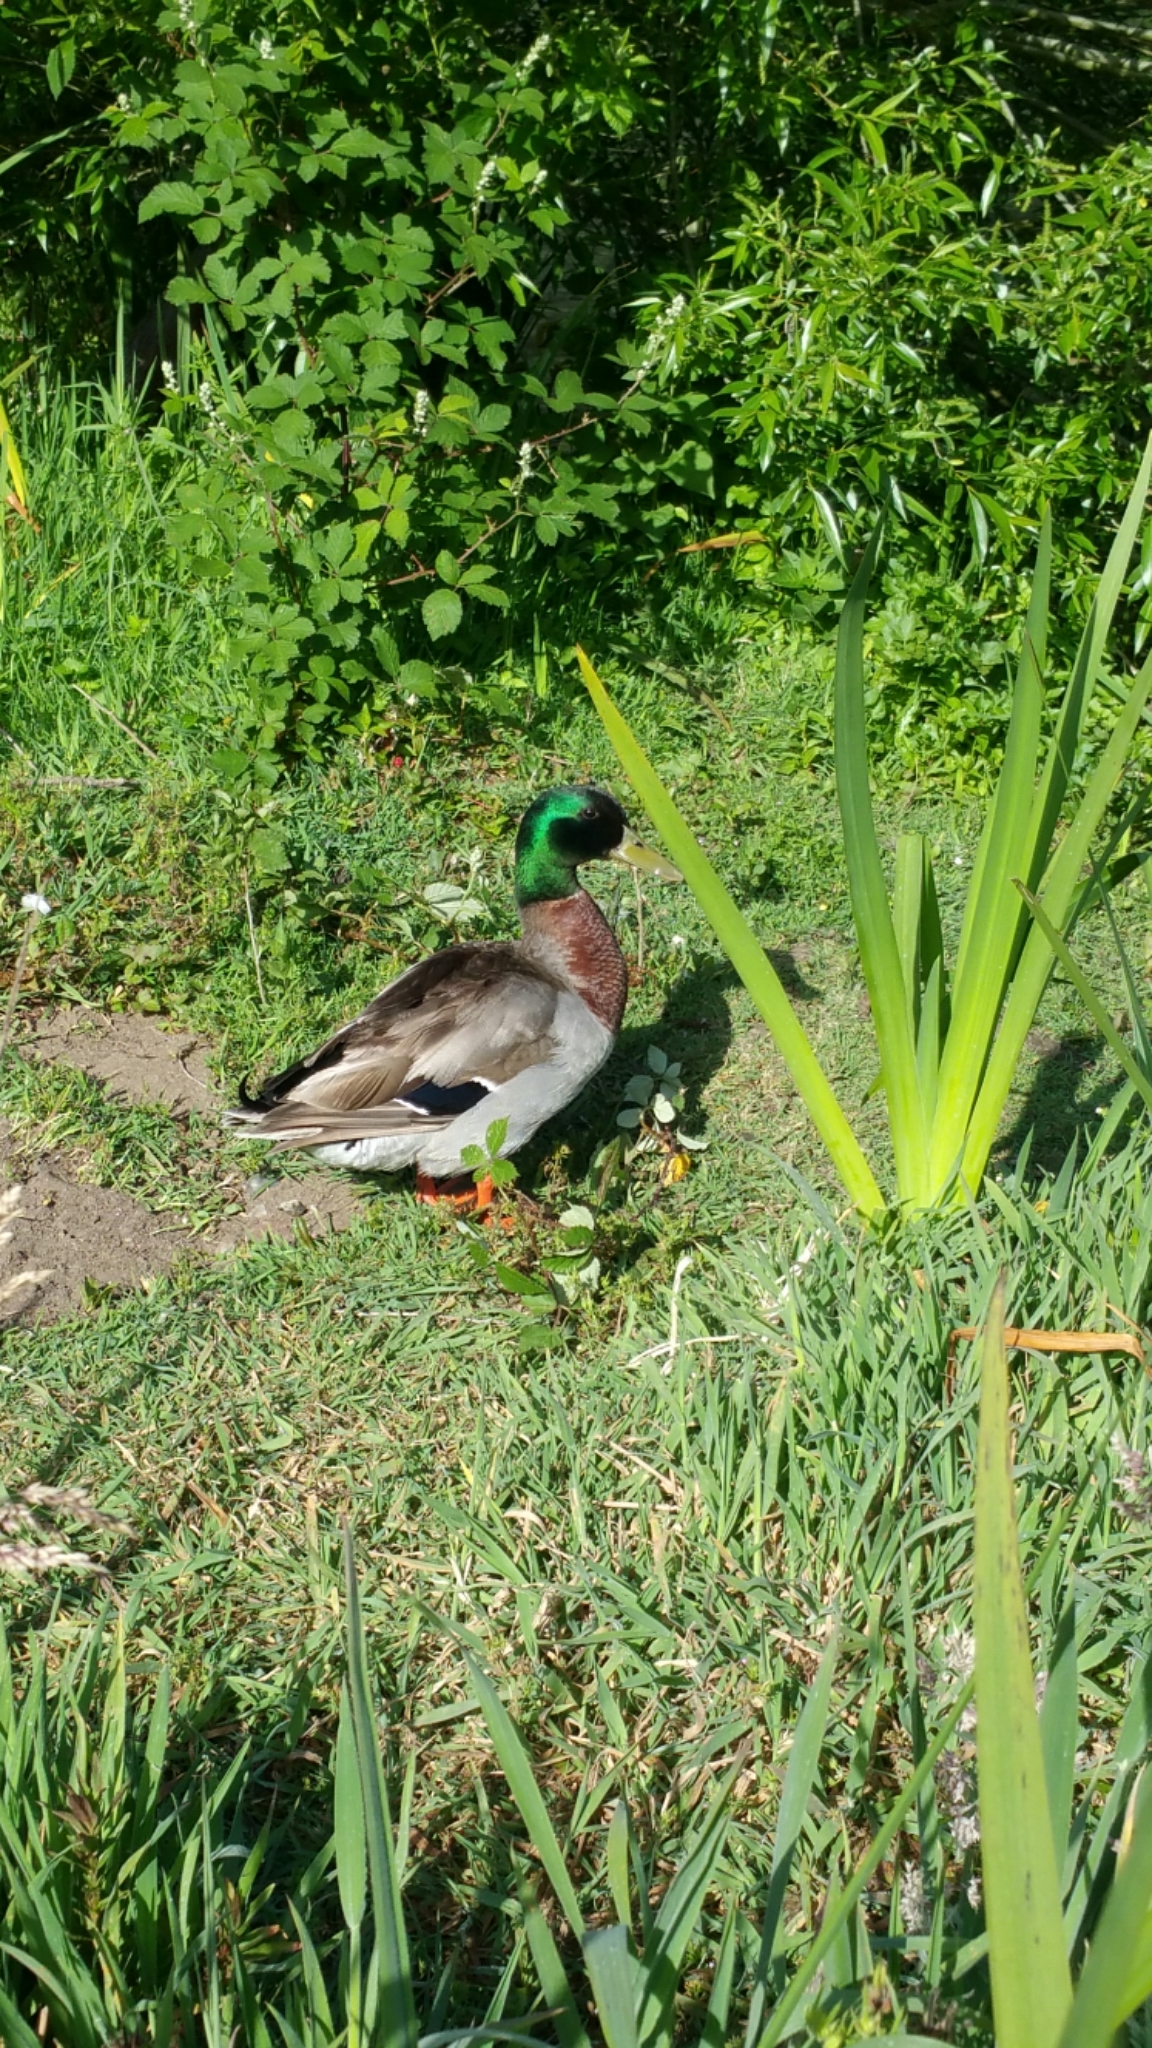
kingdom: Animalia
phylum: Chordata
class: Aves
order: Anseriformes
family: Anatidae
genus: Anas
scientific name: Anas platyrhynchos
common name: Mallard
